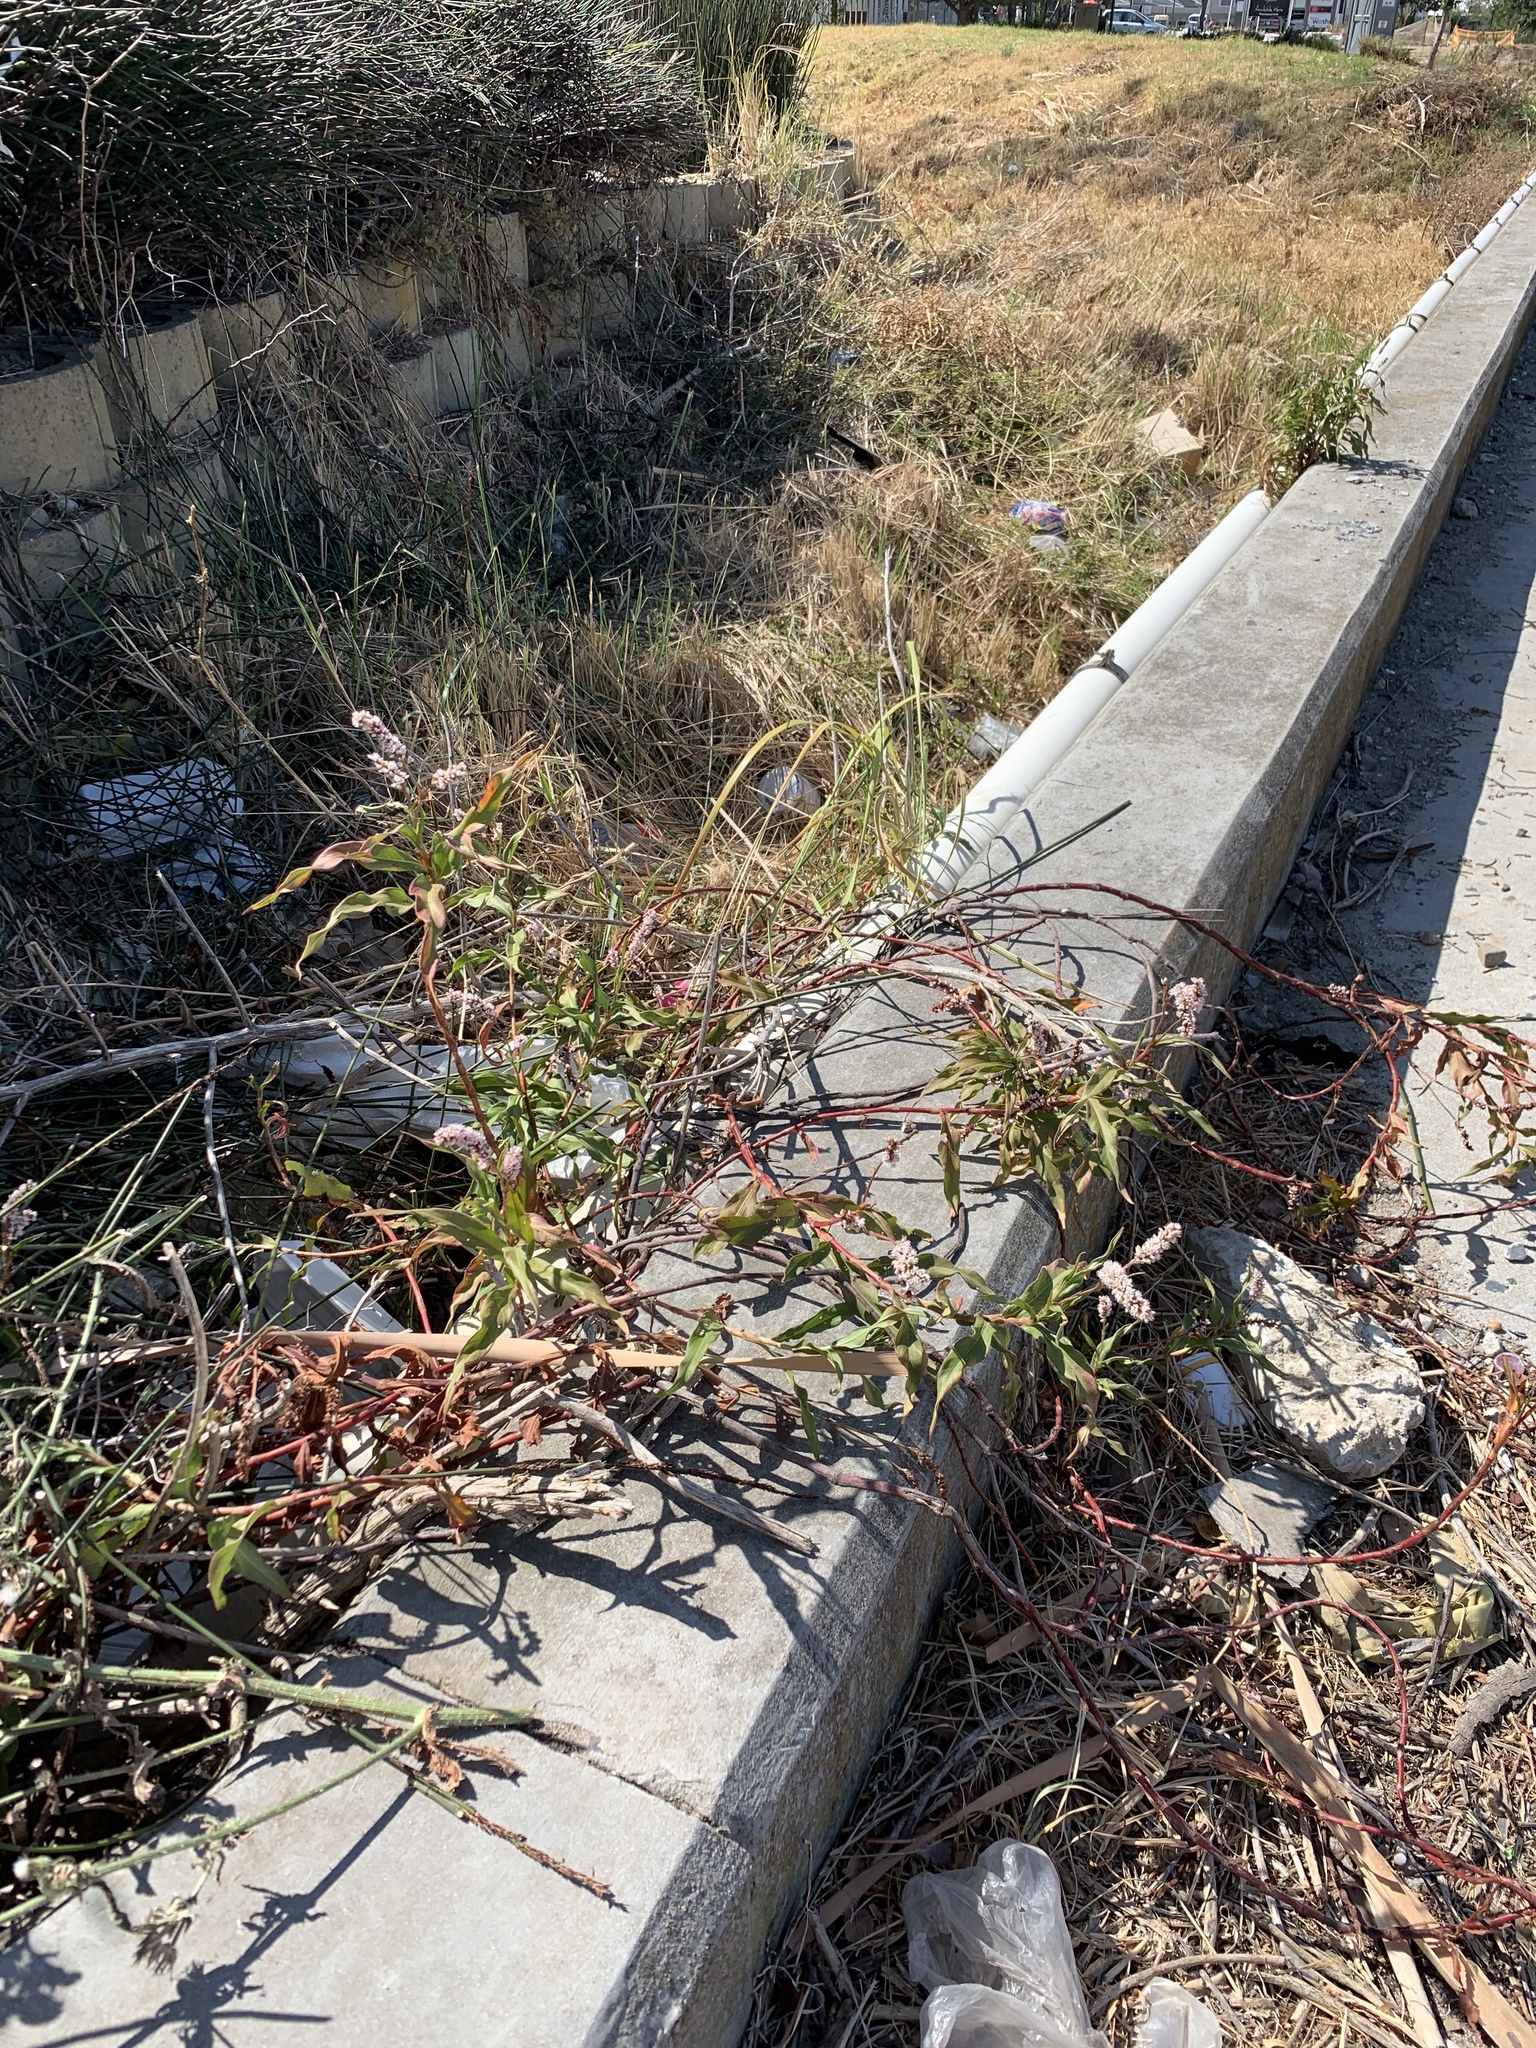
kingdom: Plantae
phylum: Tracheophyta
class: Magnoliopsida
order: Caryophyllales
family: Polygonaceae
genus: Persicaria
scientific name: Persicaria madagascariensis
